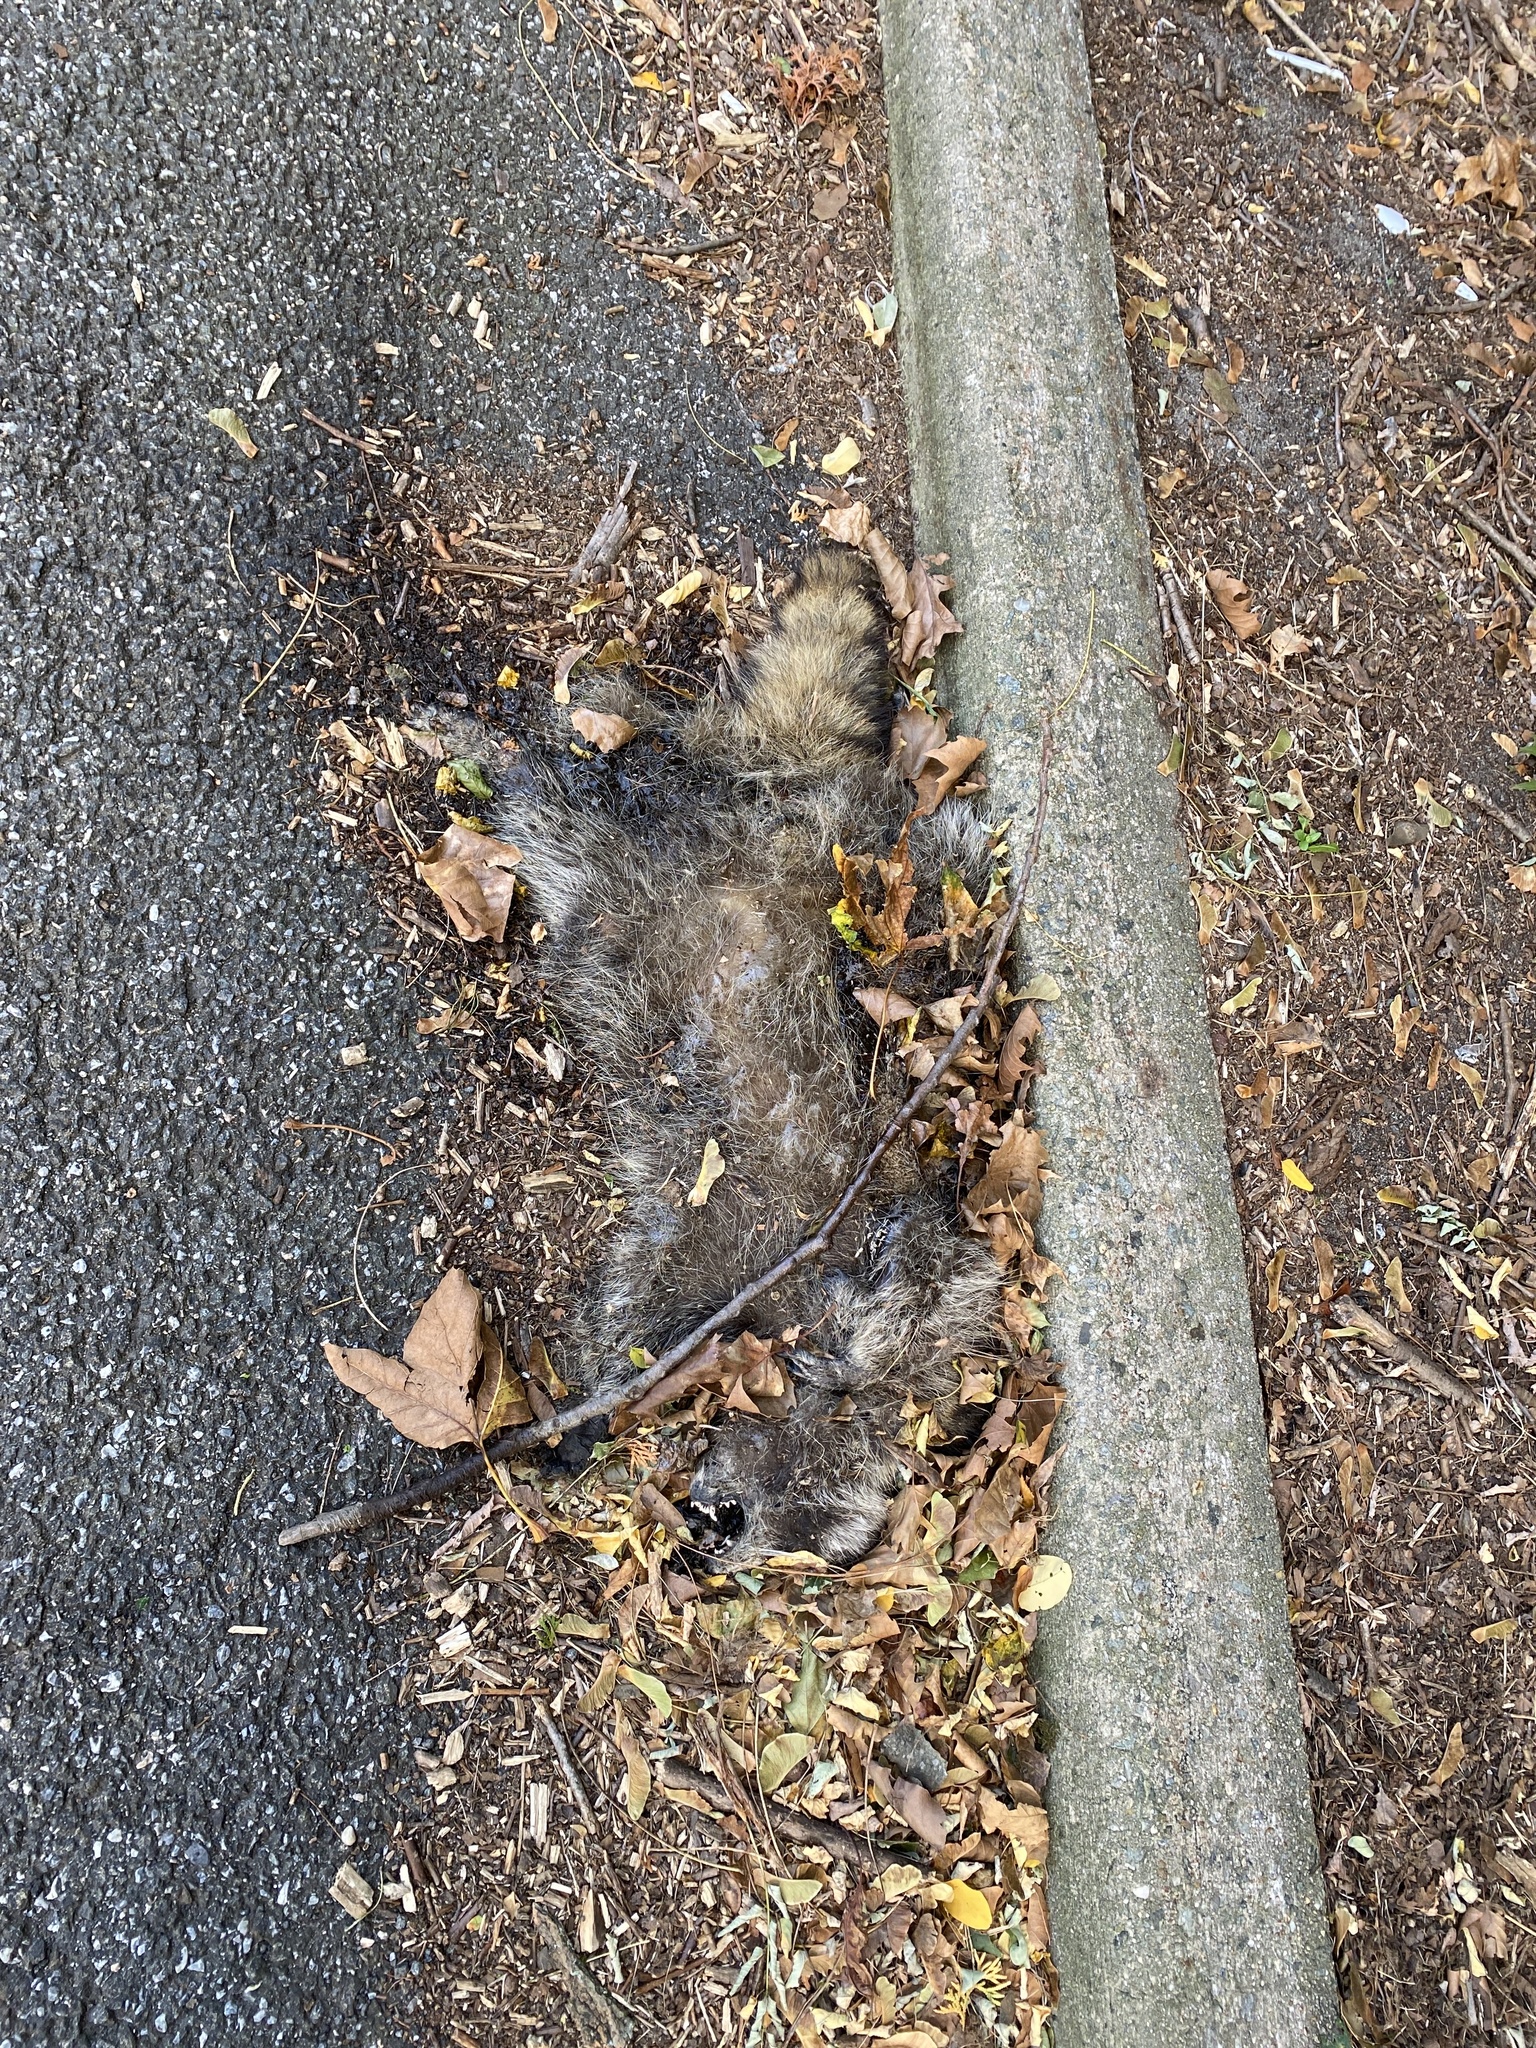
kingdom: Animalia
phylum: Chordata
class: Mammalia
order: Carnivora
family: Procyonidae
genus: Procyon
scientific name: Procyon lotor
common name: Raccoon
